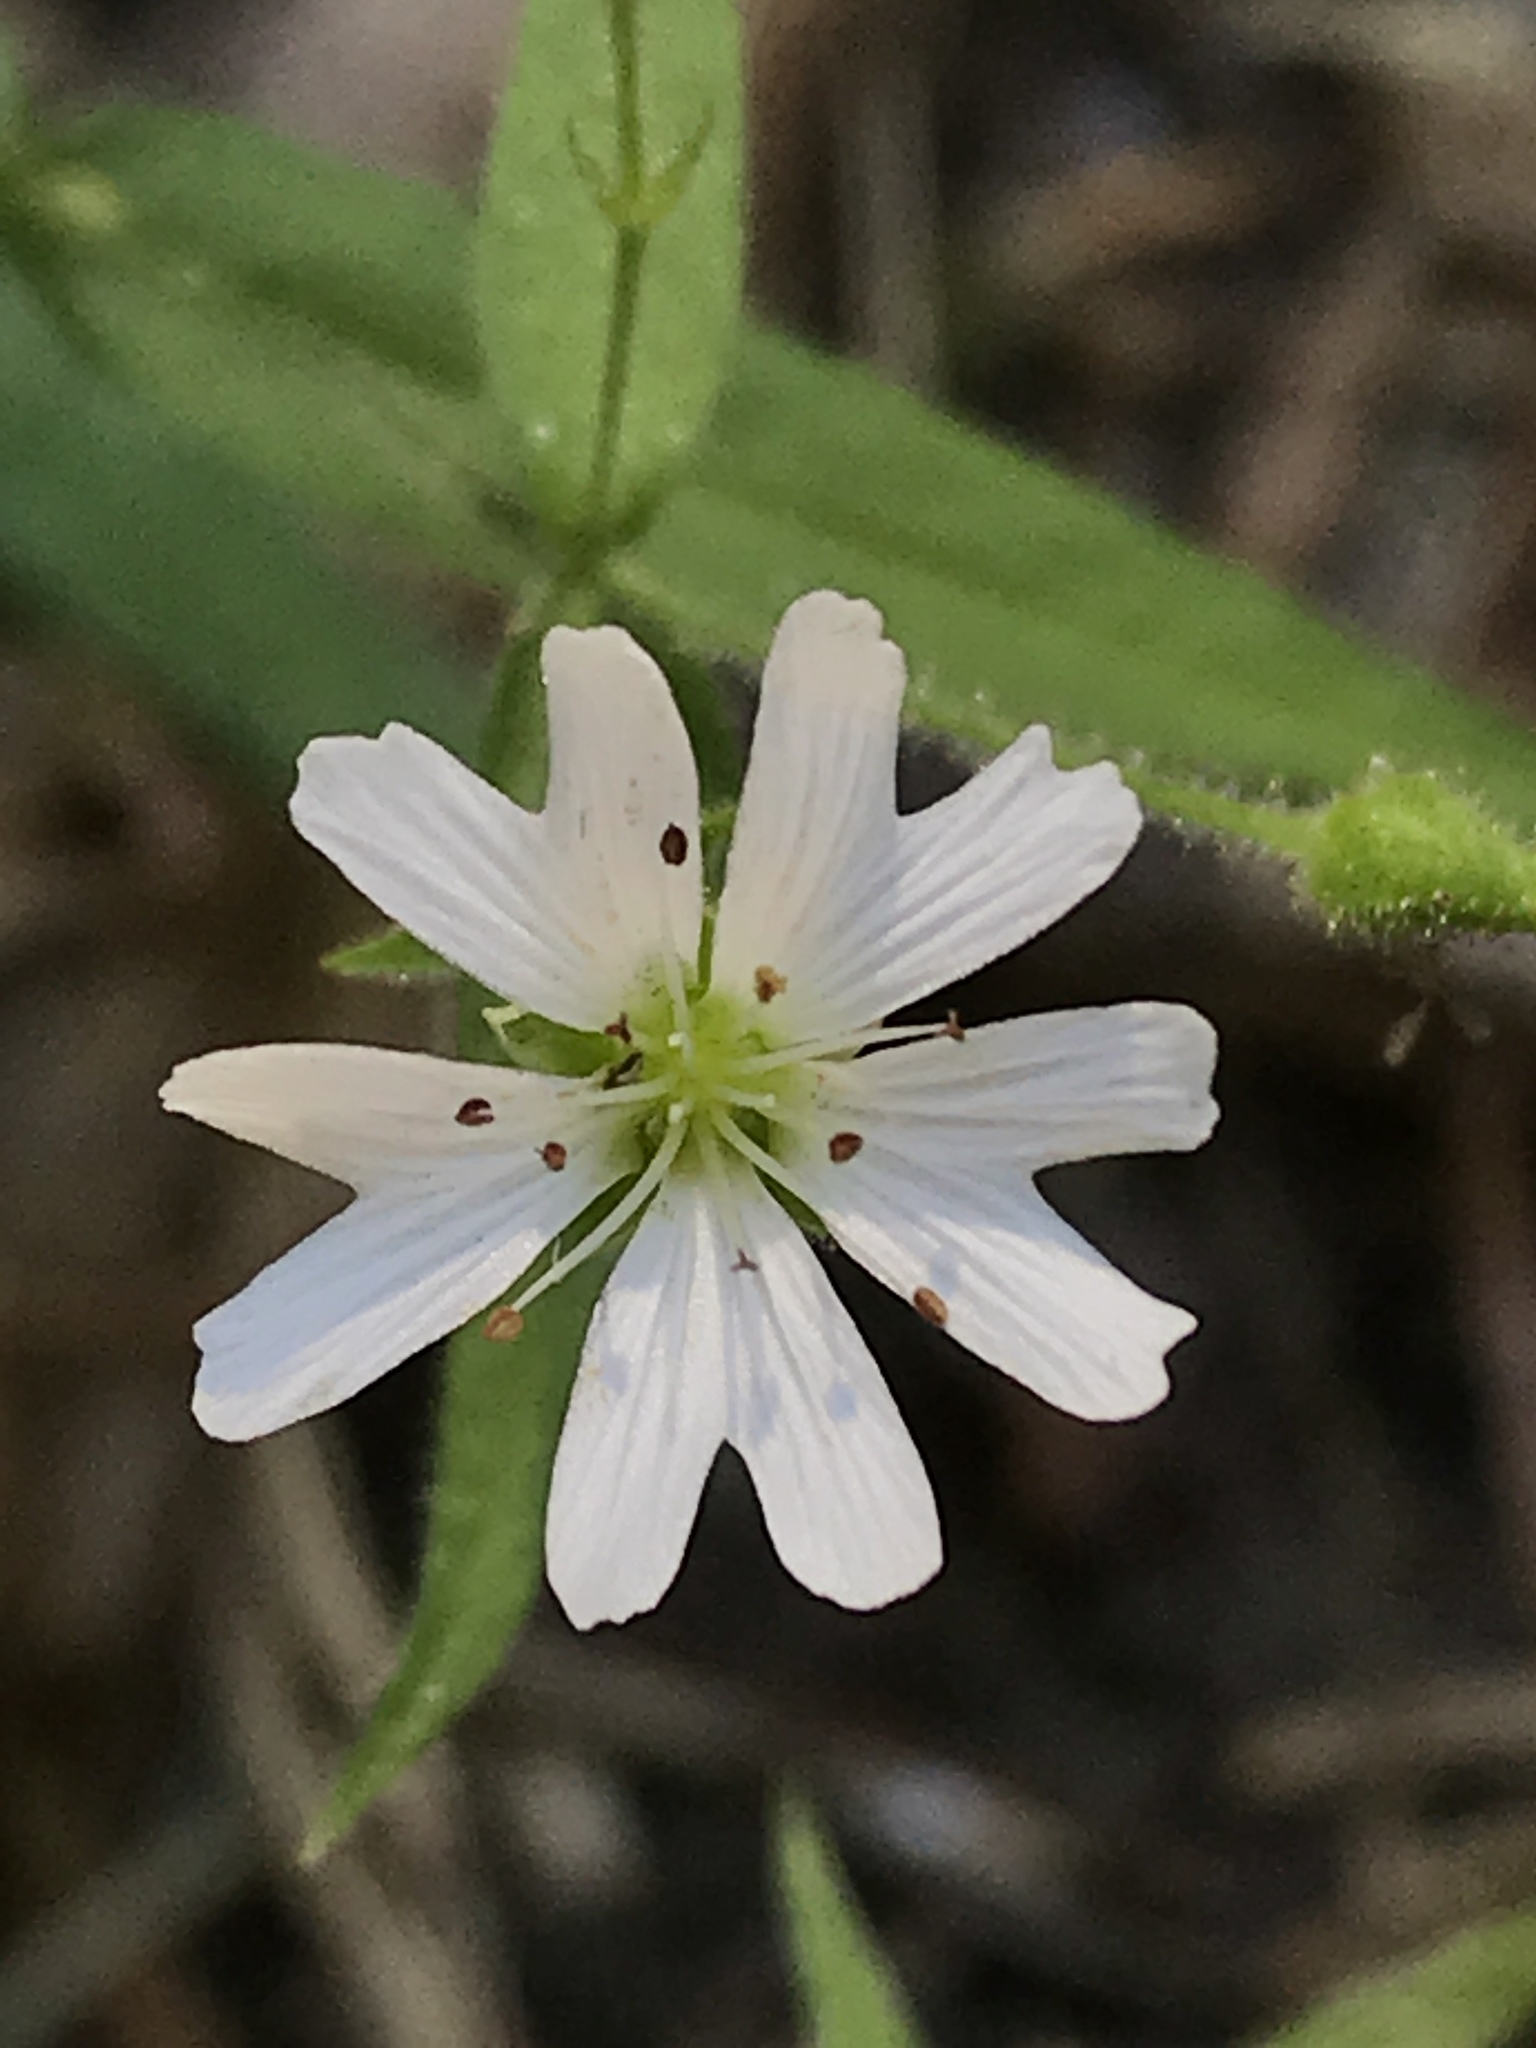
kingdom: Plantae
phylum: Tracheophyta
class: Magnoliopsida
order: Caryophyllales
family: Caryophyllaceae
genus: Schizotechium
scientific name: Schizotechium jamesianum
